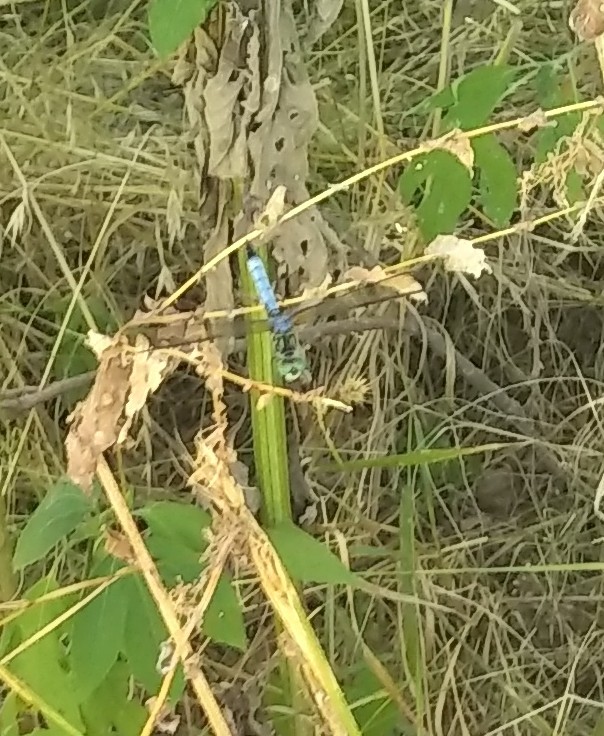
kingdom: Animalia
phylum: Arthropoda
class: Insecta
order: Odonata
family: Libellulidae
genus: Pachydiplax
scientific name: Pachydiplax longipennis
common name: Blue dasher
